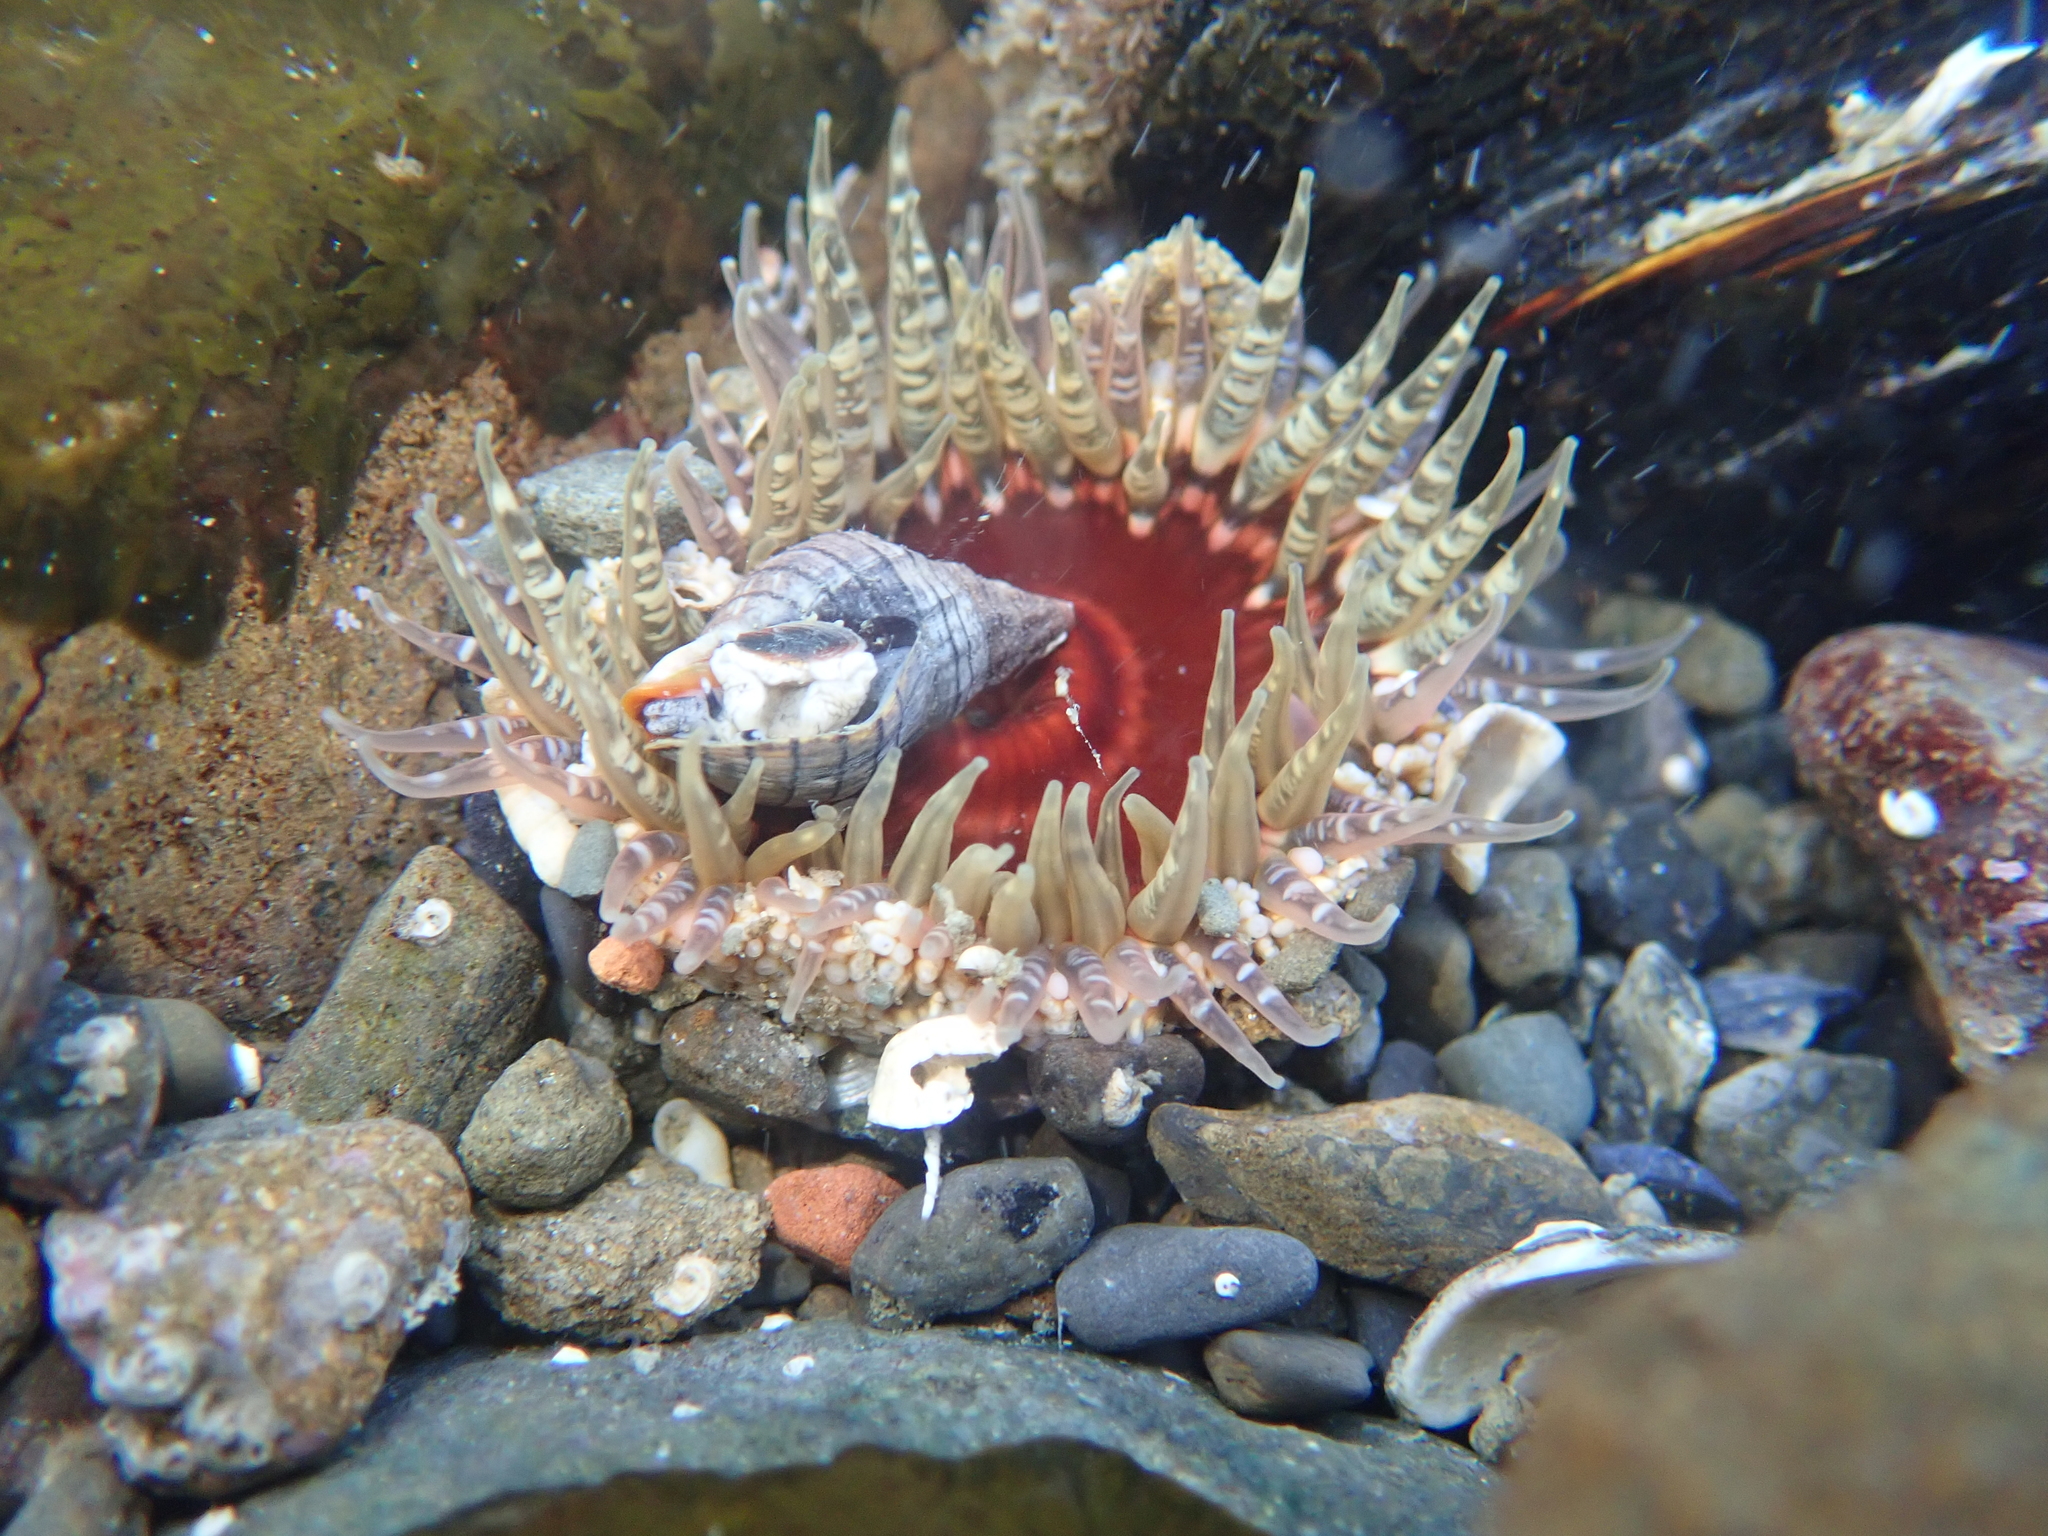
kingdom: Animalia
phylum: Cnidaria
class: Anthozoa
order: Actiniaria
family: Actiniidae
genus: Oulactis
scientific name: Oulactis muscosa
